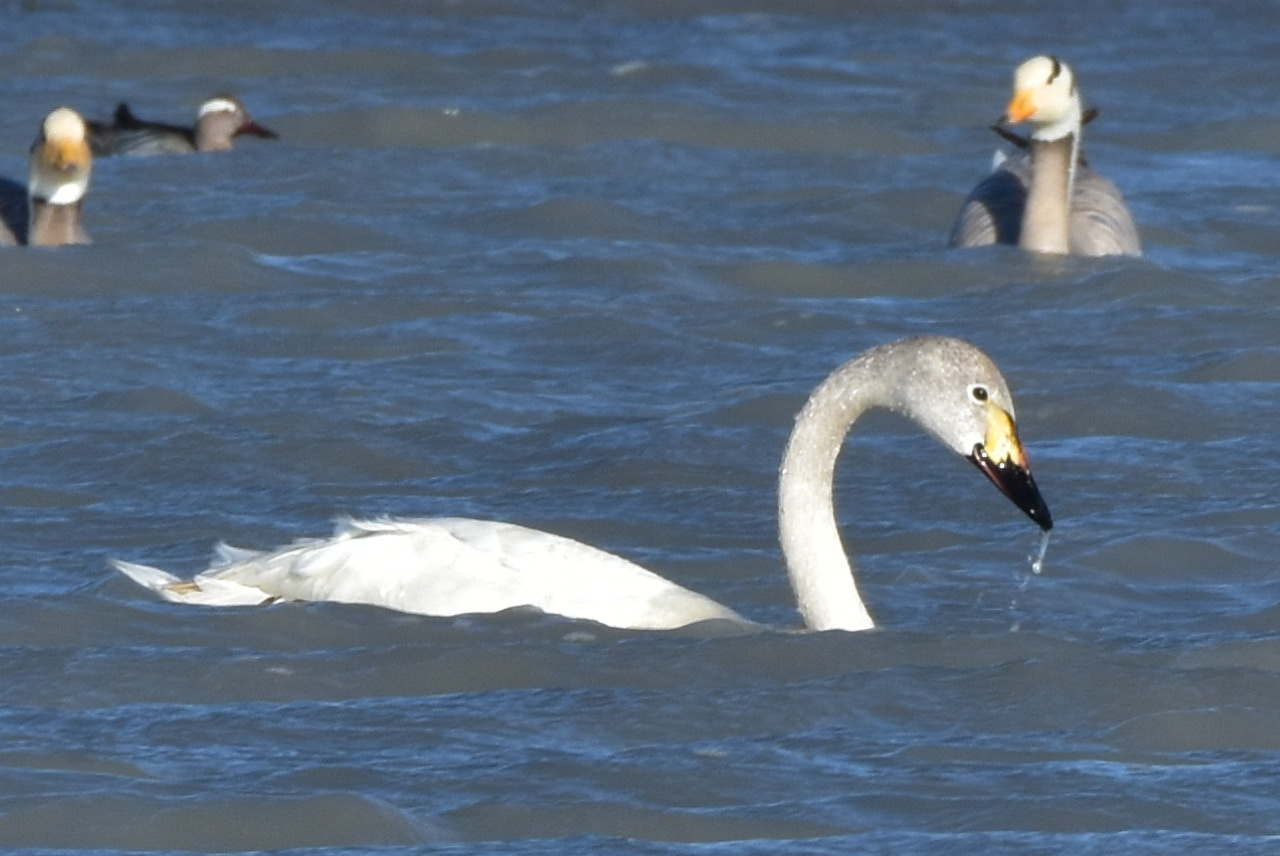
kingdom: Animalia
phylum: Chordata
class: Aves
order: Anseriformes
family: Anatidae
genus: Cygnus
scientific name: Cygnus columbianus
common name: Tundra swan
